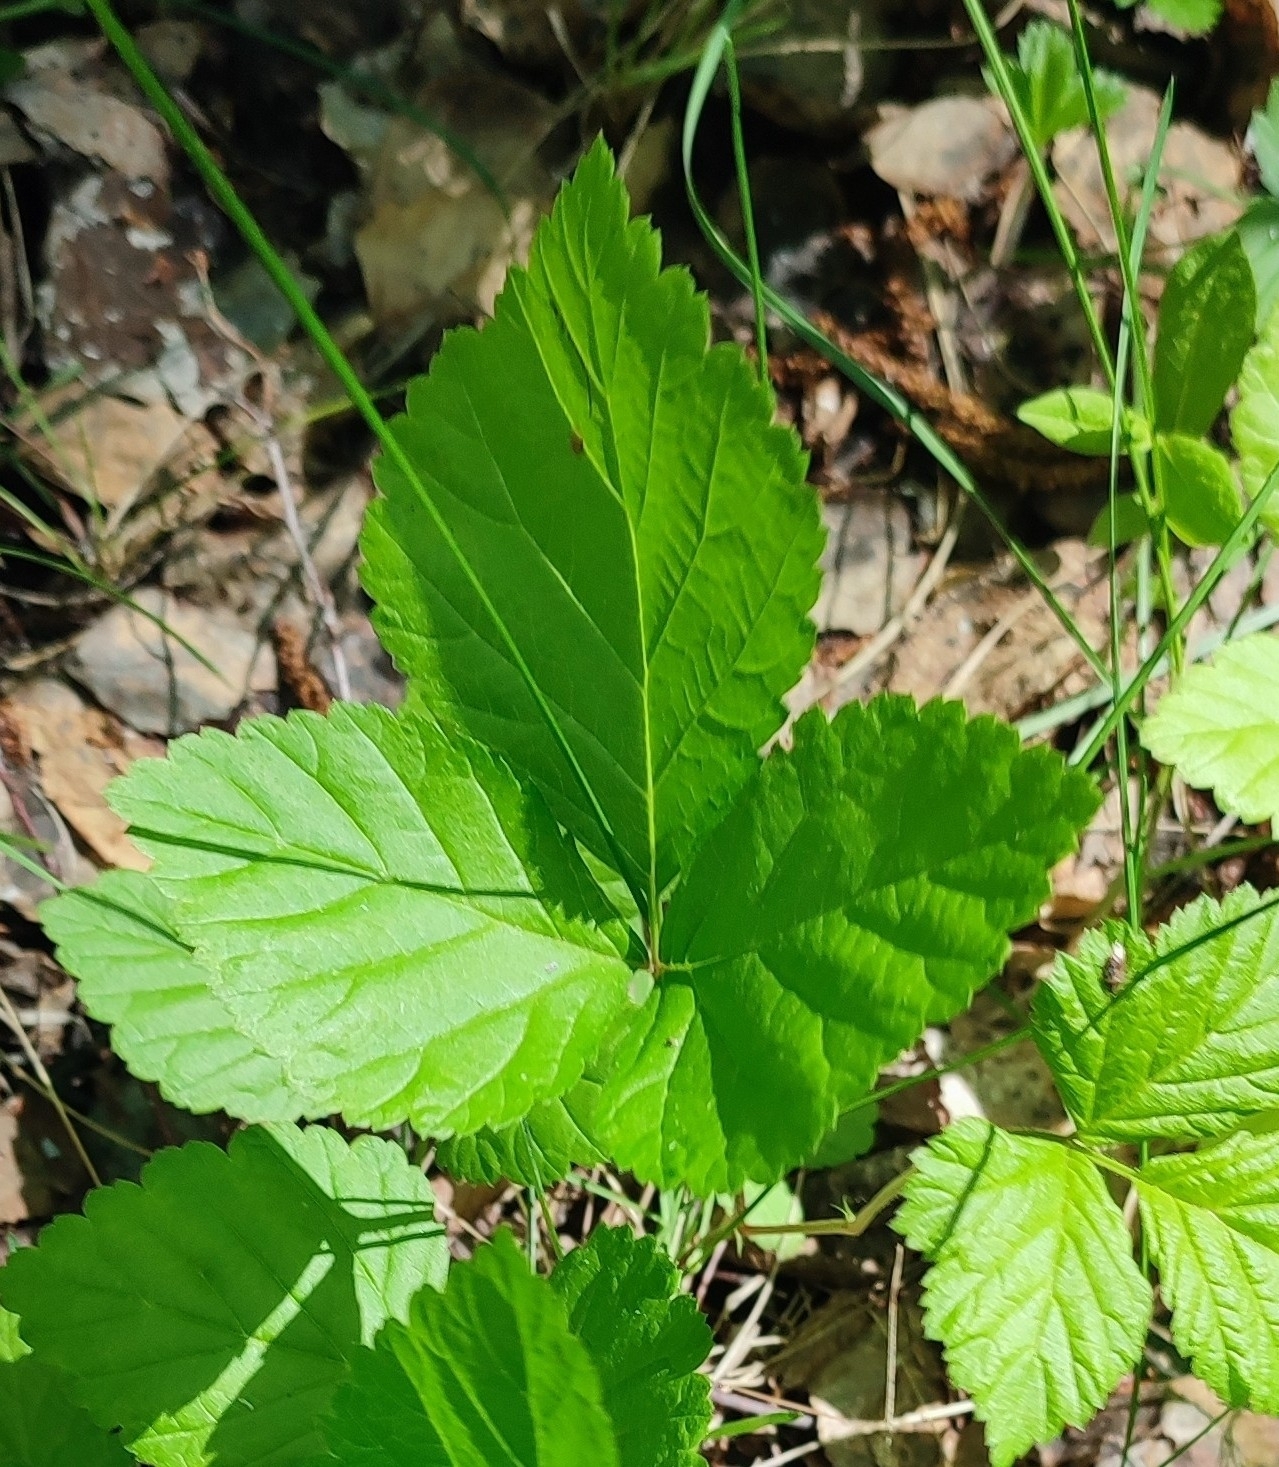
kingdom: Plantae
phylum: Tracheophyta
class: Magnoliopsida
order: Rosales
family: Rosaceae
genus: Rubus
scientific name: Rubus saxatilis
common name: Stone bramble
